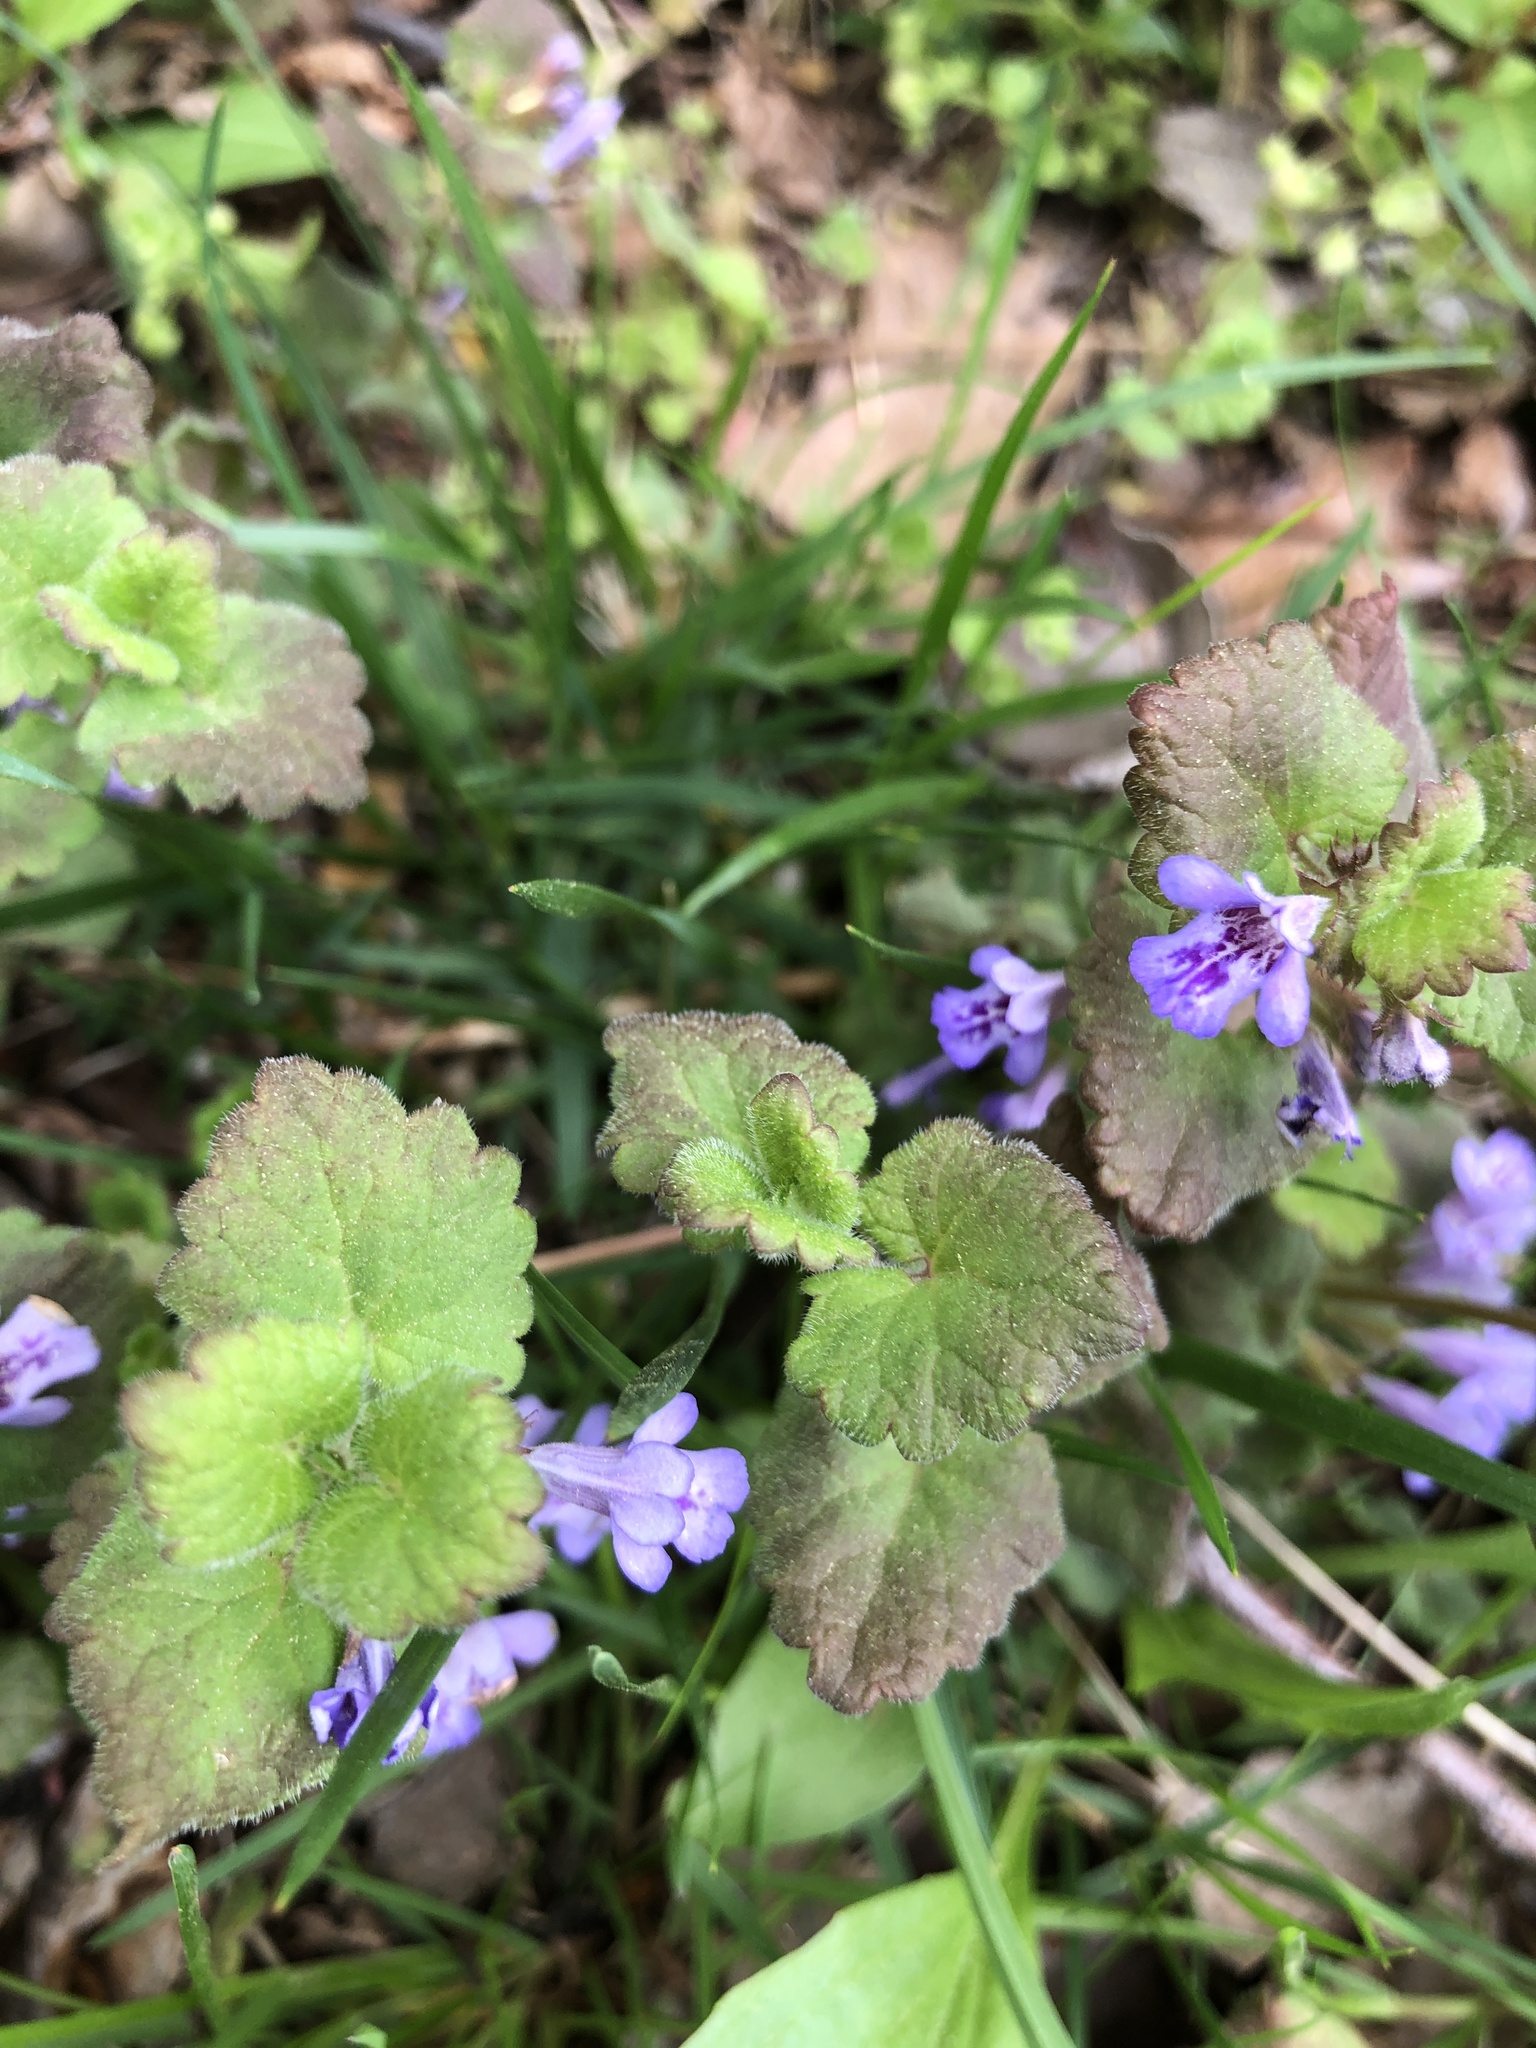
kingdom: Plantae
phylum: Tracheophyta
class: Magnoliopsida
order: Lamiales
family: Lamiaceae
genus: Glechoma
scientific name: Glechoma hederacea
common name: Ground ivy
